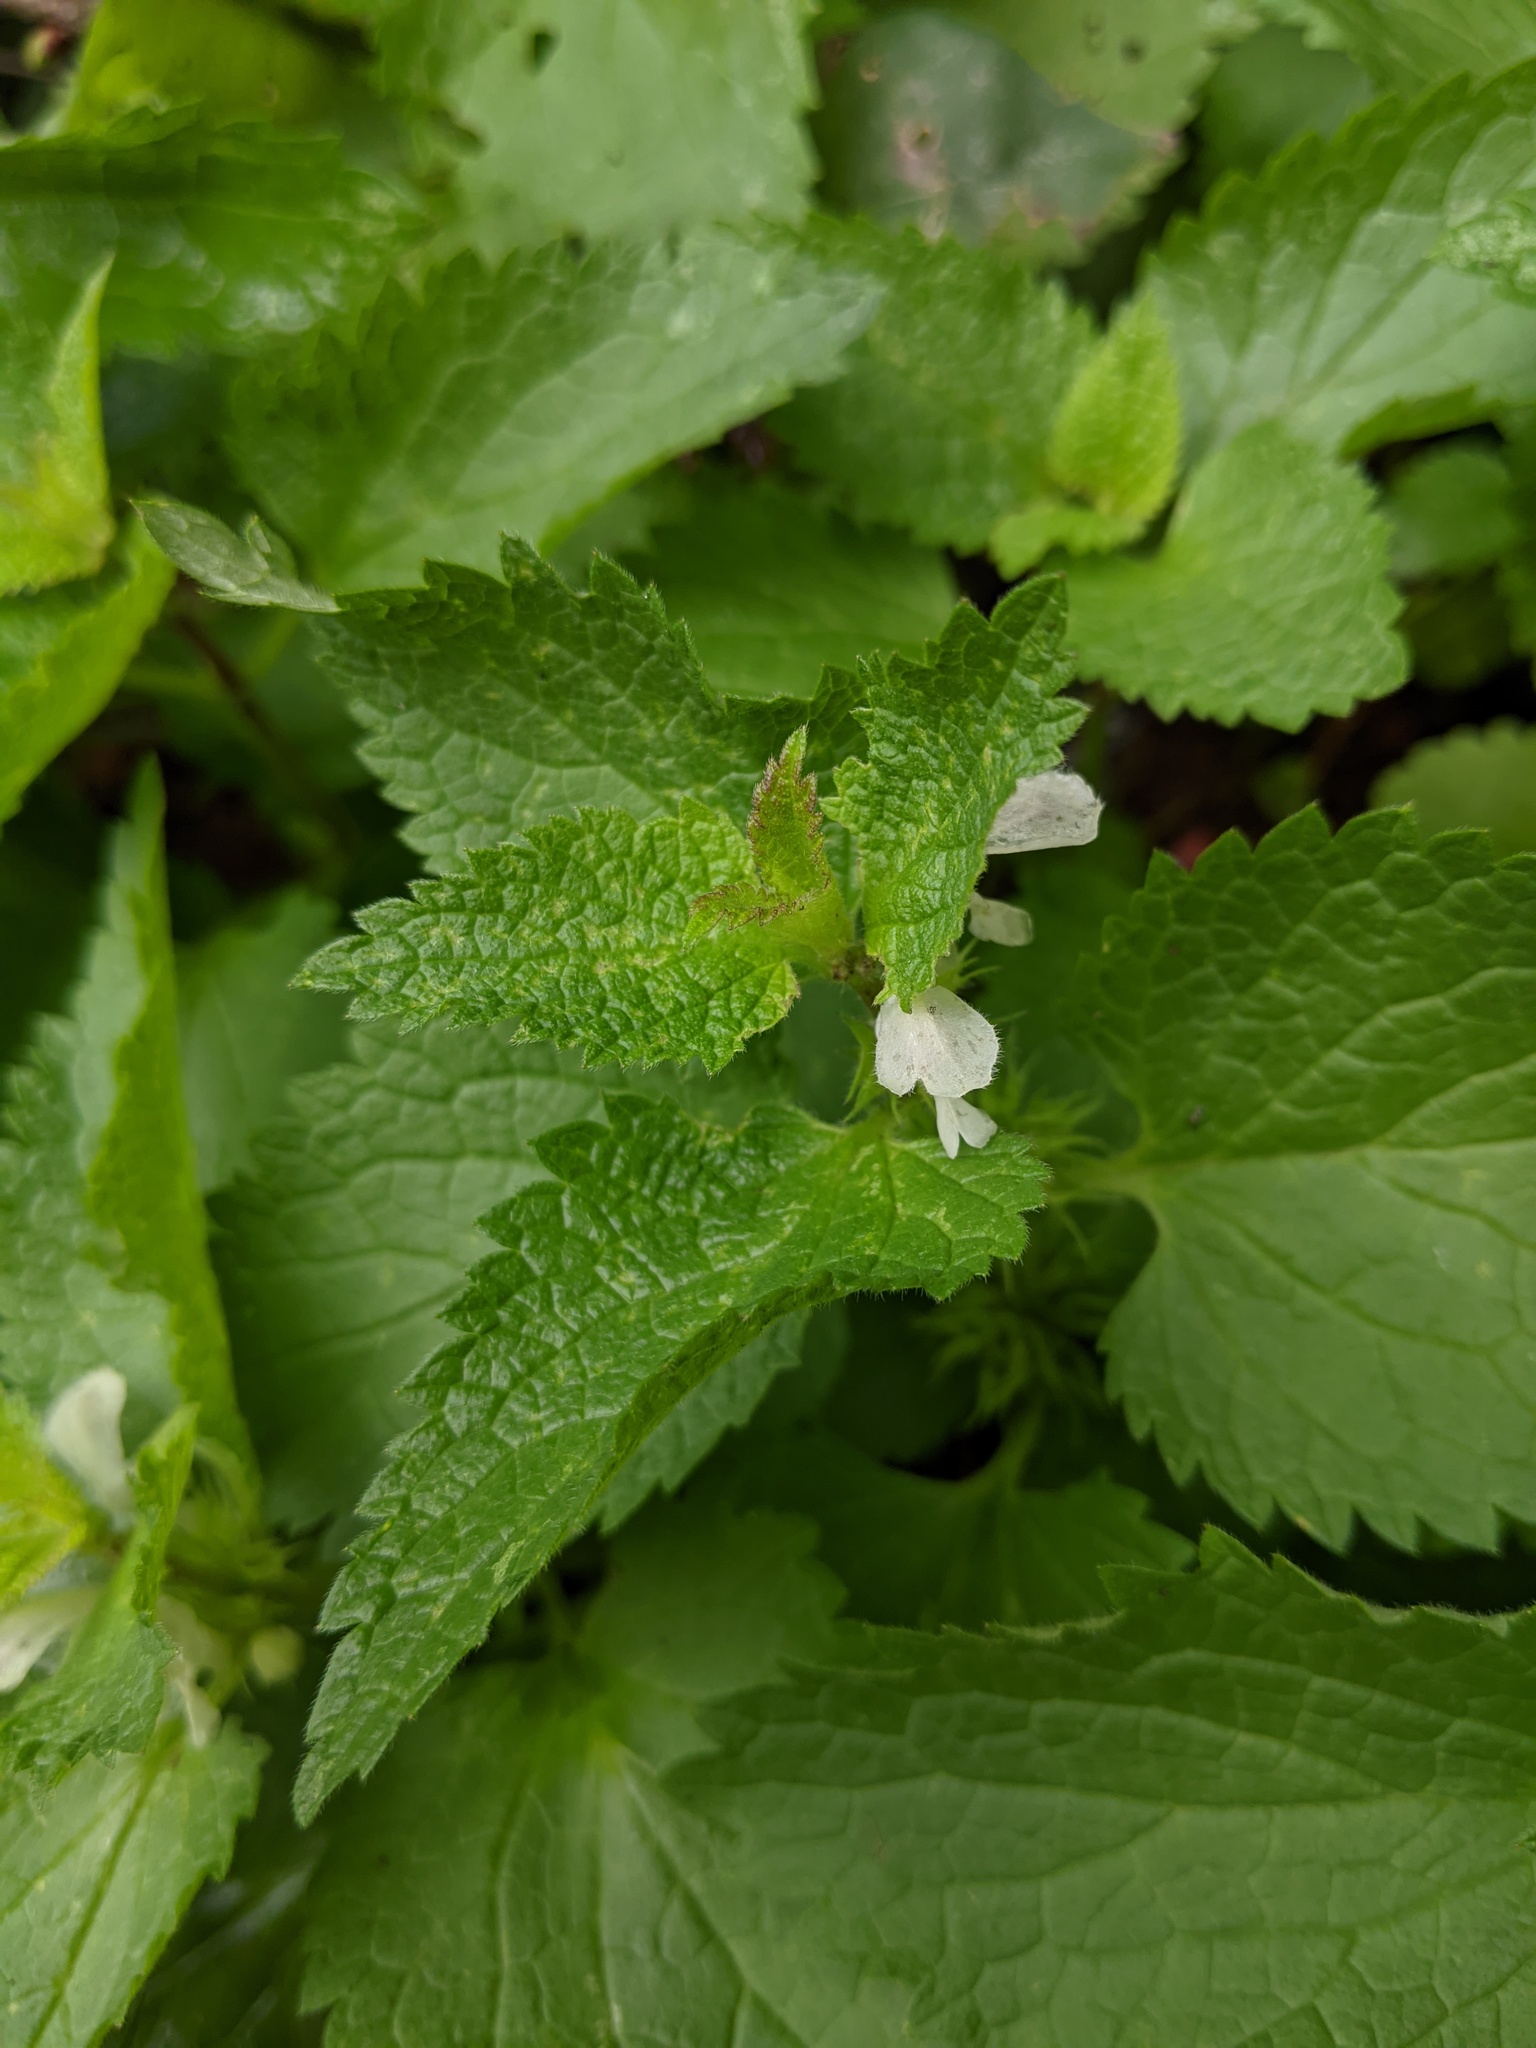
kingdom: Plantae
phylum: Tracheophyta
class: Magnoliopsida
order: Lamiales
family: Lamiaceae
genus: Lamium
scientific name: Lamium album
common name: White dead-nettle
